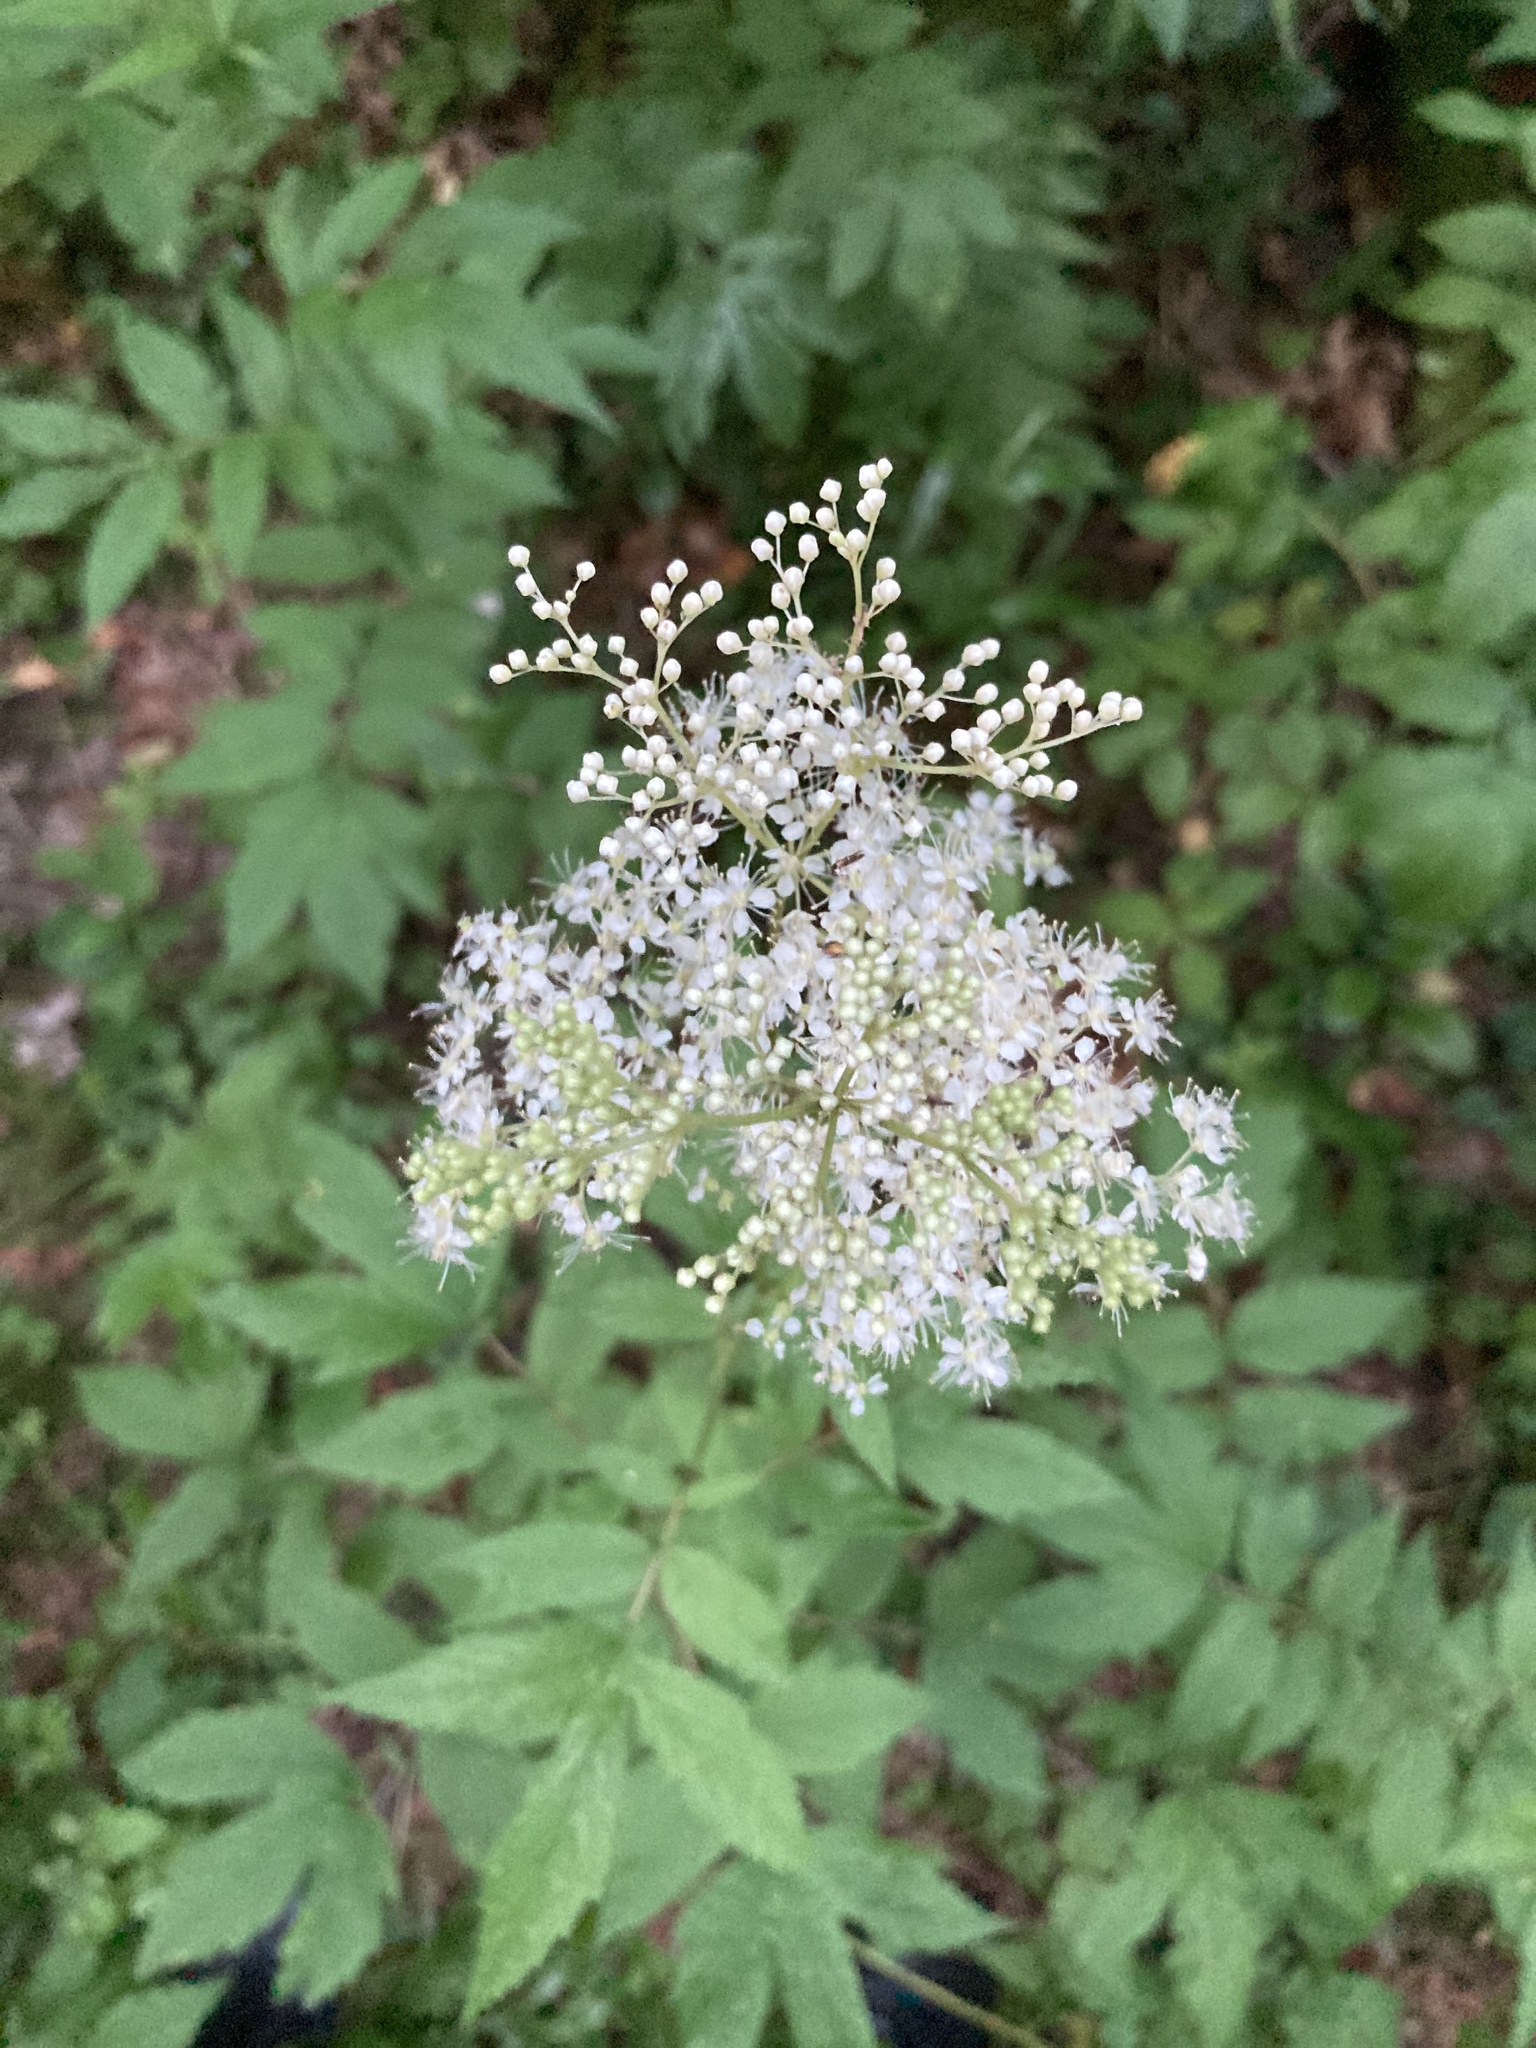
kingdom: Plantae
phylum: Tracheophyta
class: Magnoliopsida
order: Rosales
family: Rosaceae
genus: Filipendula
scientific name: Filipendula ulmaria
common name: Meadowsweet
